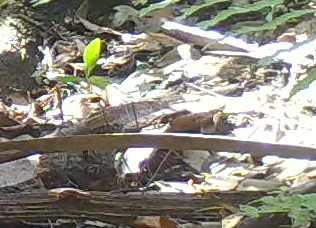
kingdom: Animalia
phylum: Chordata
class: Squamata
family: Dactyloidae
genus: Anolis
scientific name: Anolis sagrei
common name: Brown anole
